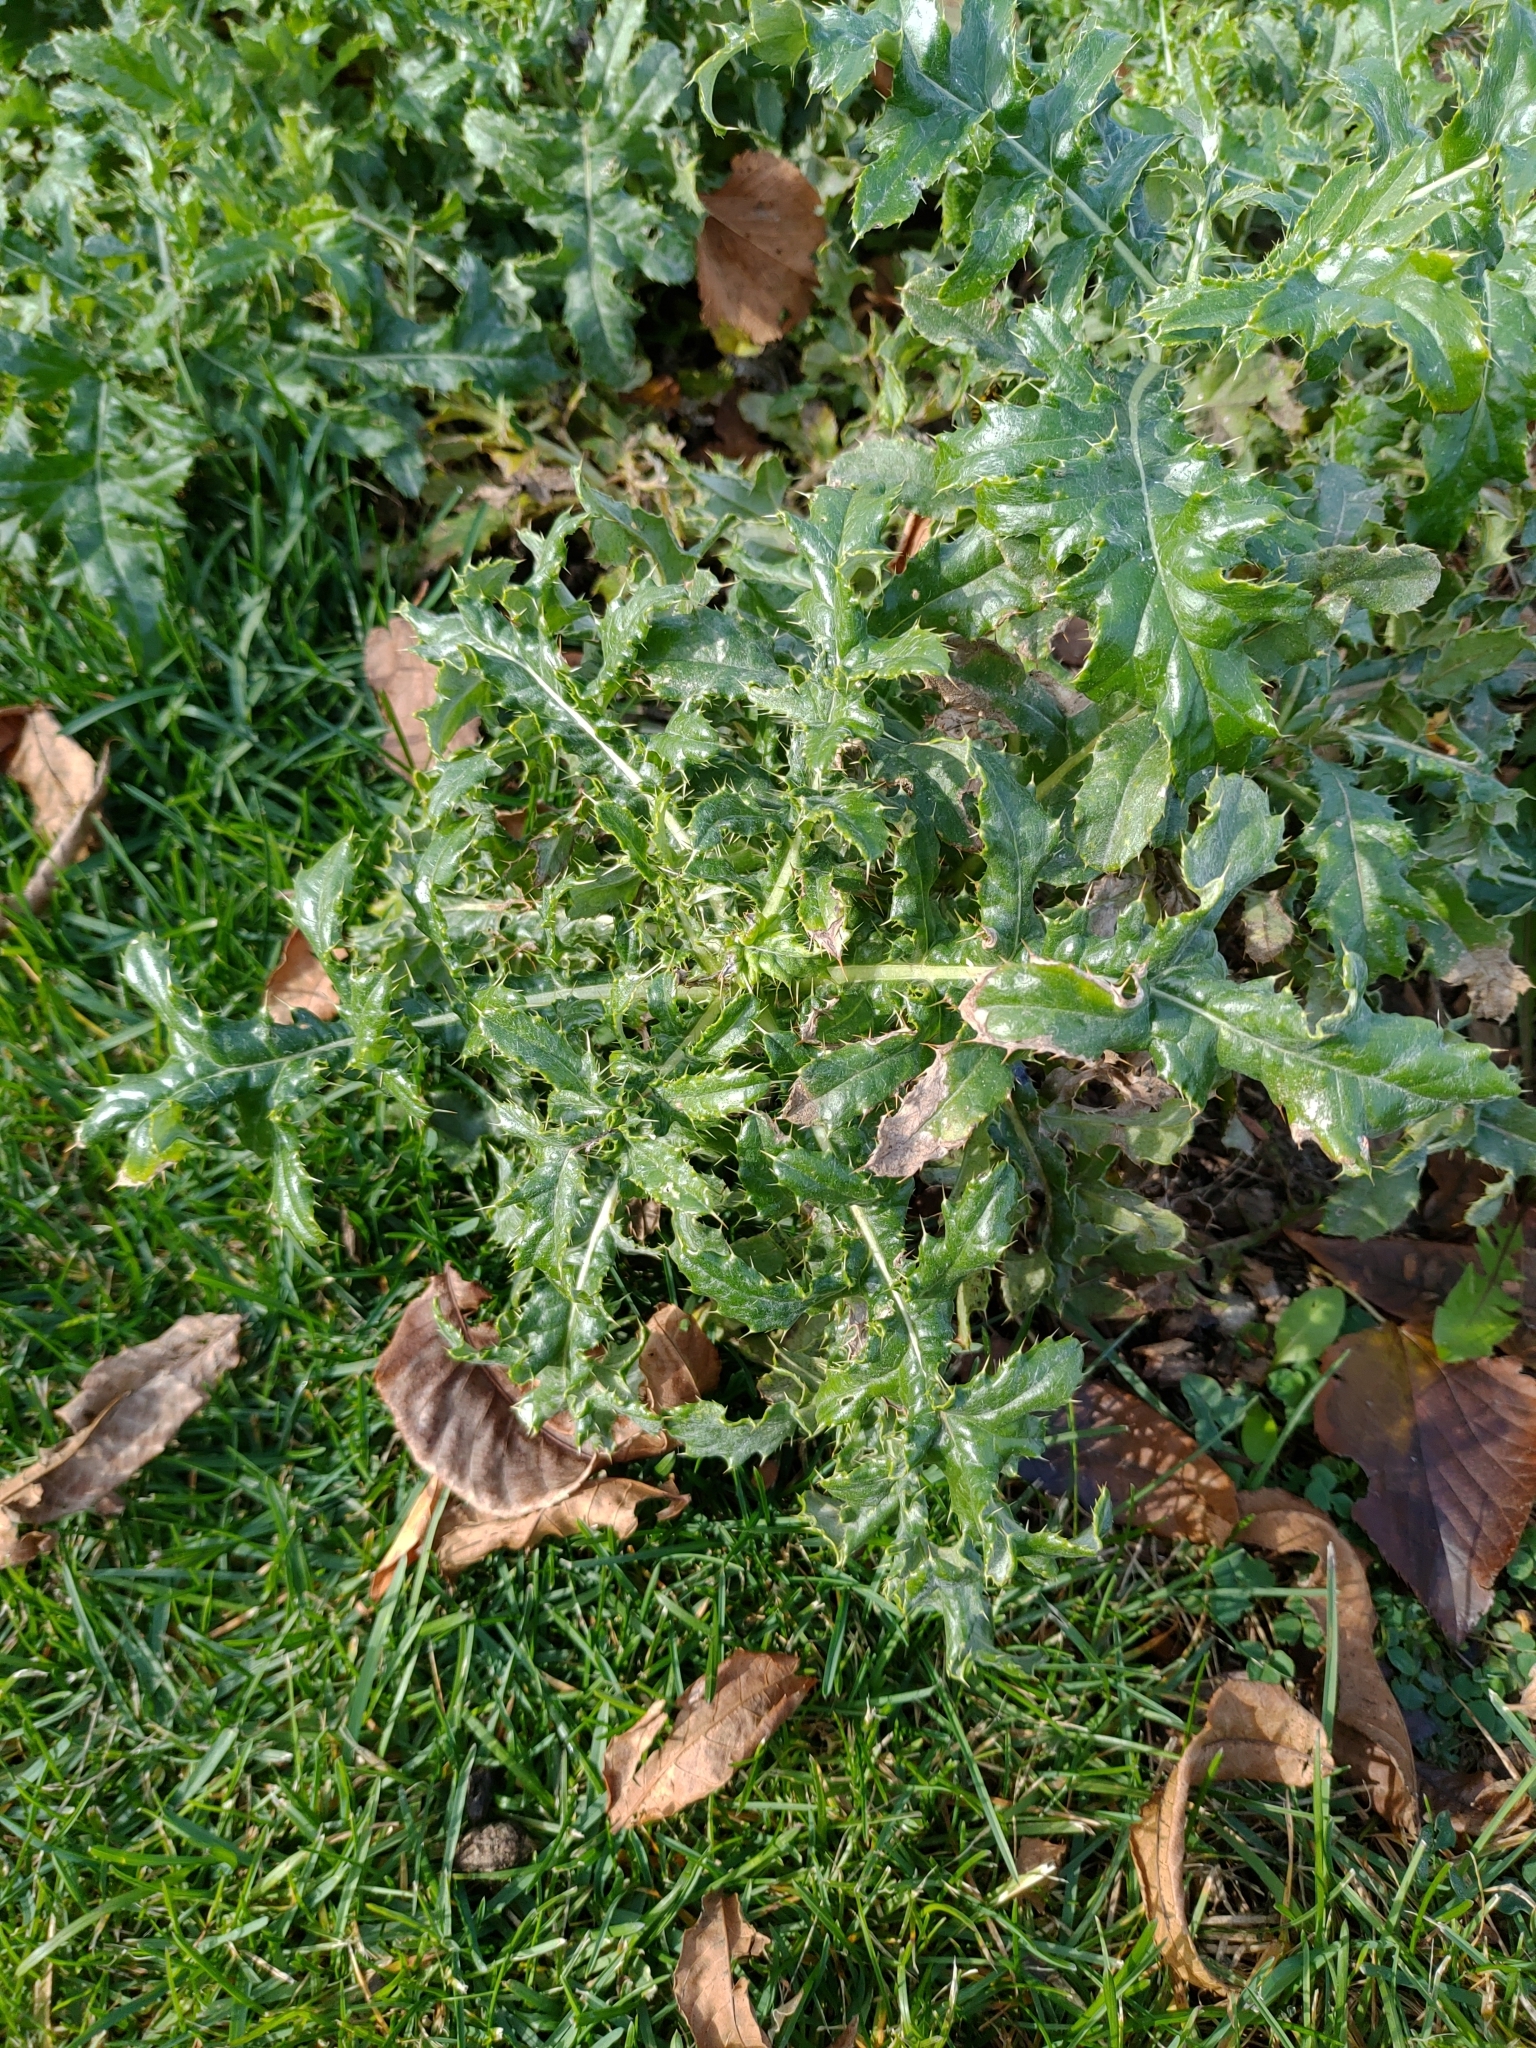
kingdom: Plantae
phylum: Tracheophyta
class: Magnoliopsida
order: Asterales
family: Asteraceae
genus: Cirsium
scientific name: Cirsium arvense
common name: Creeping thistle
